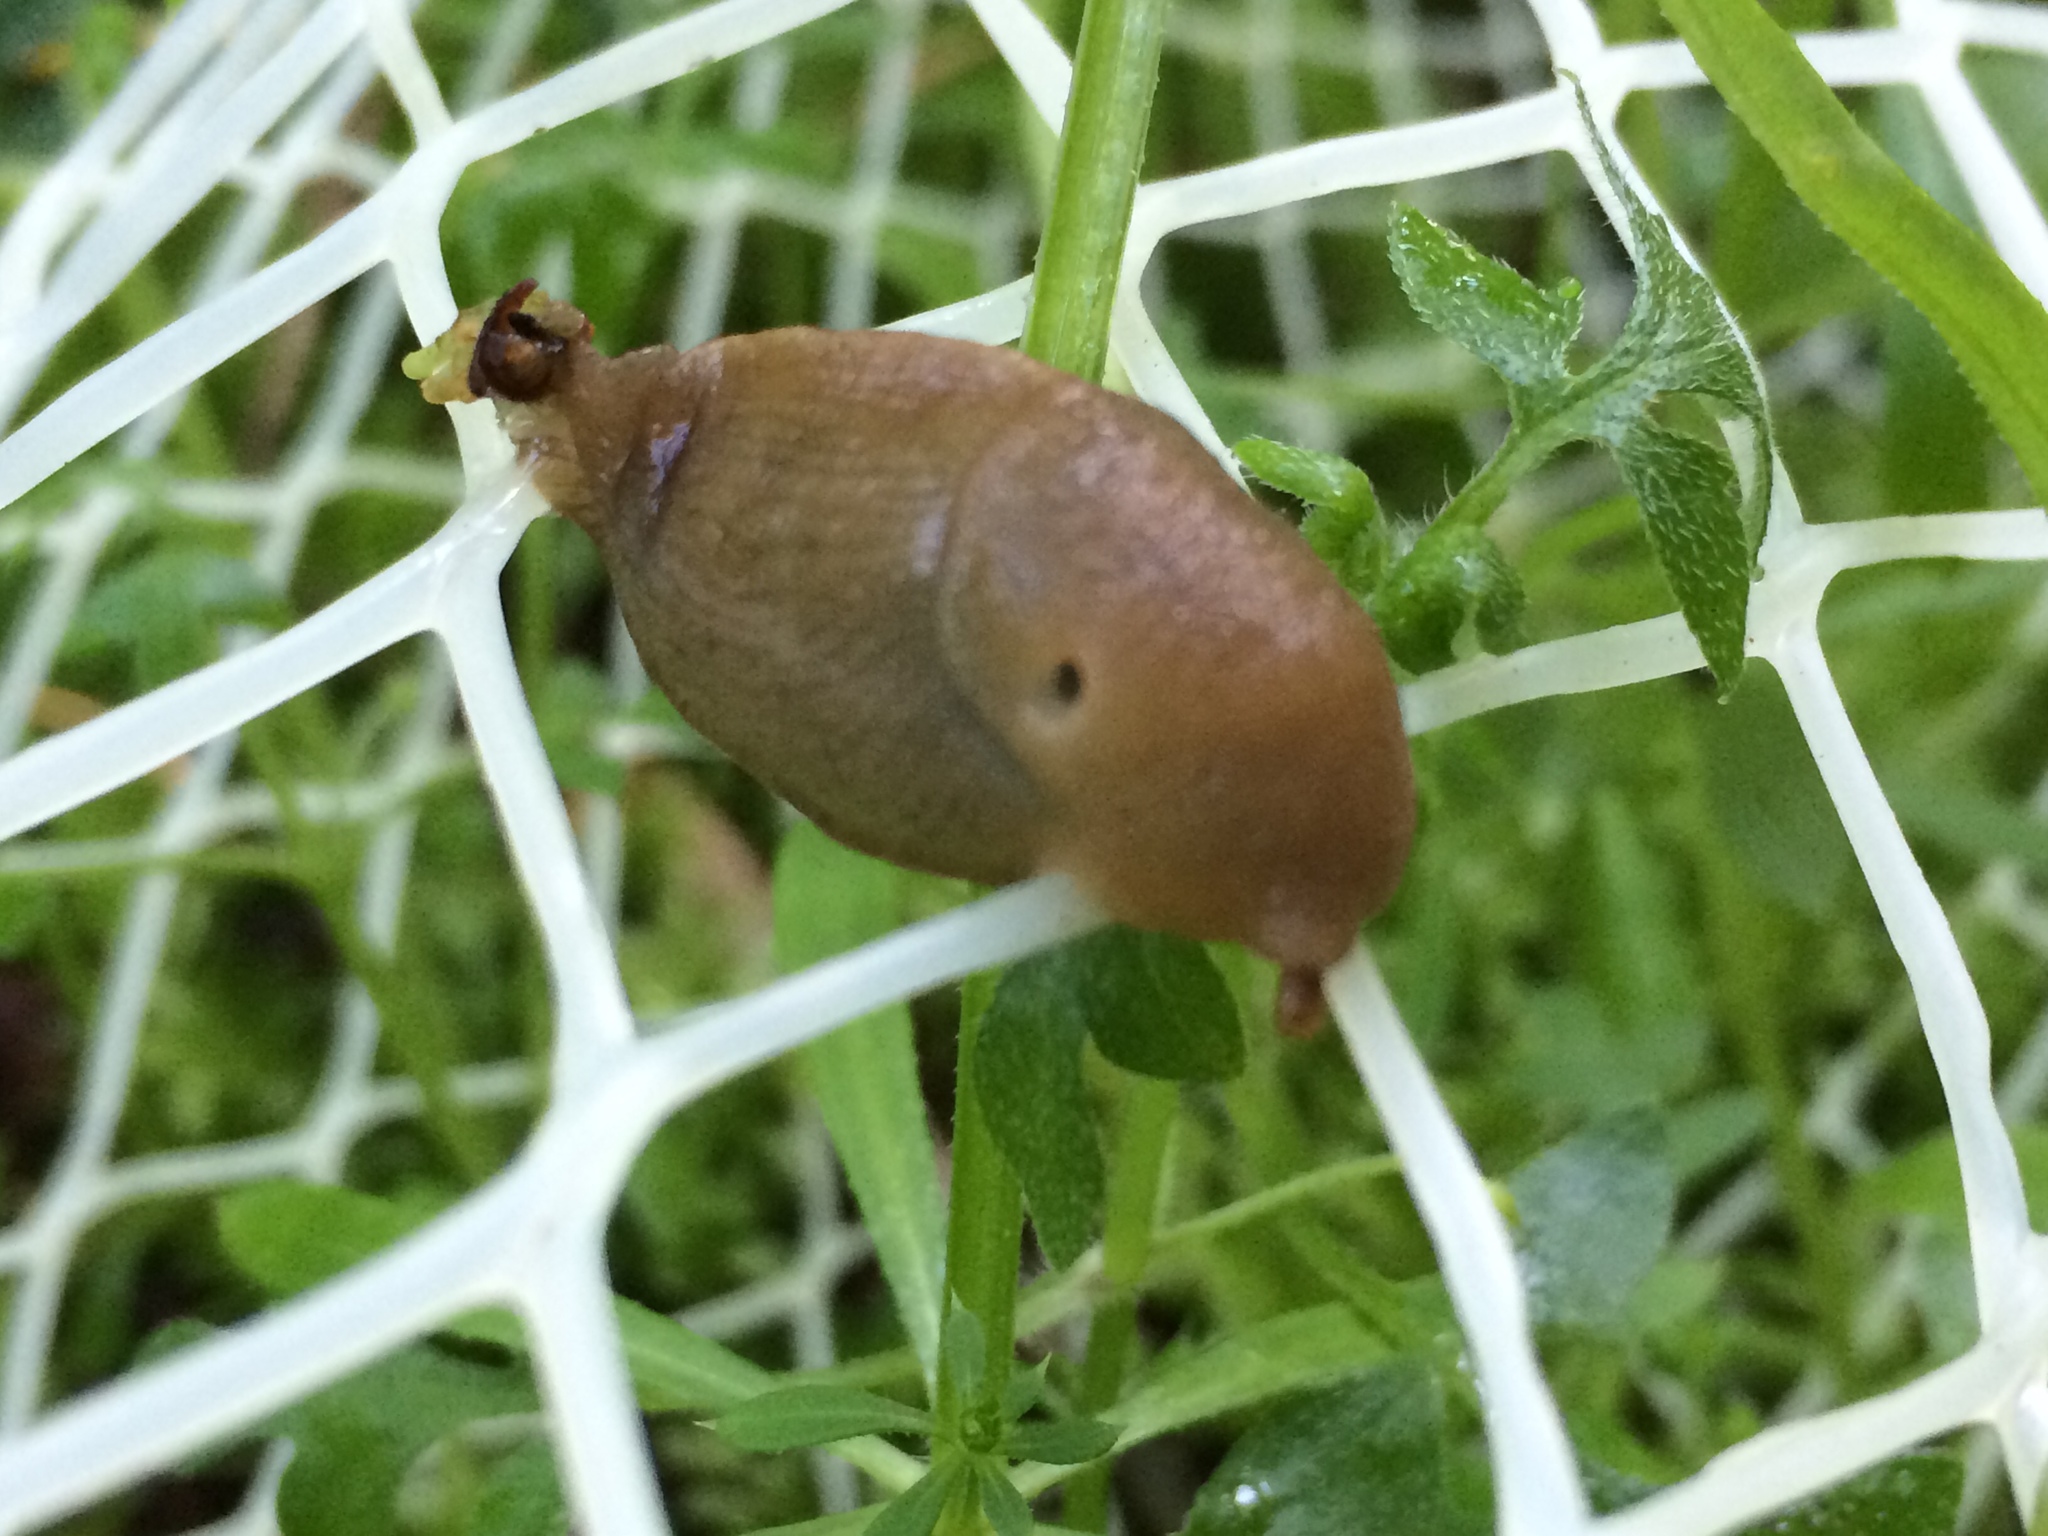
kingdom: Animalia
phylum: Mollusca
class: Gastropoda
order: Stylommatophora
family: Ariolimacidae
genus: Ariolimax
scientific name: Ariolimax columbianus
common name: Pacific banana slug
